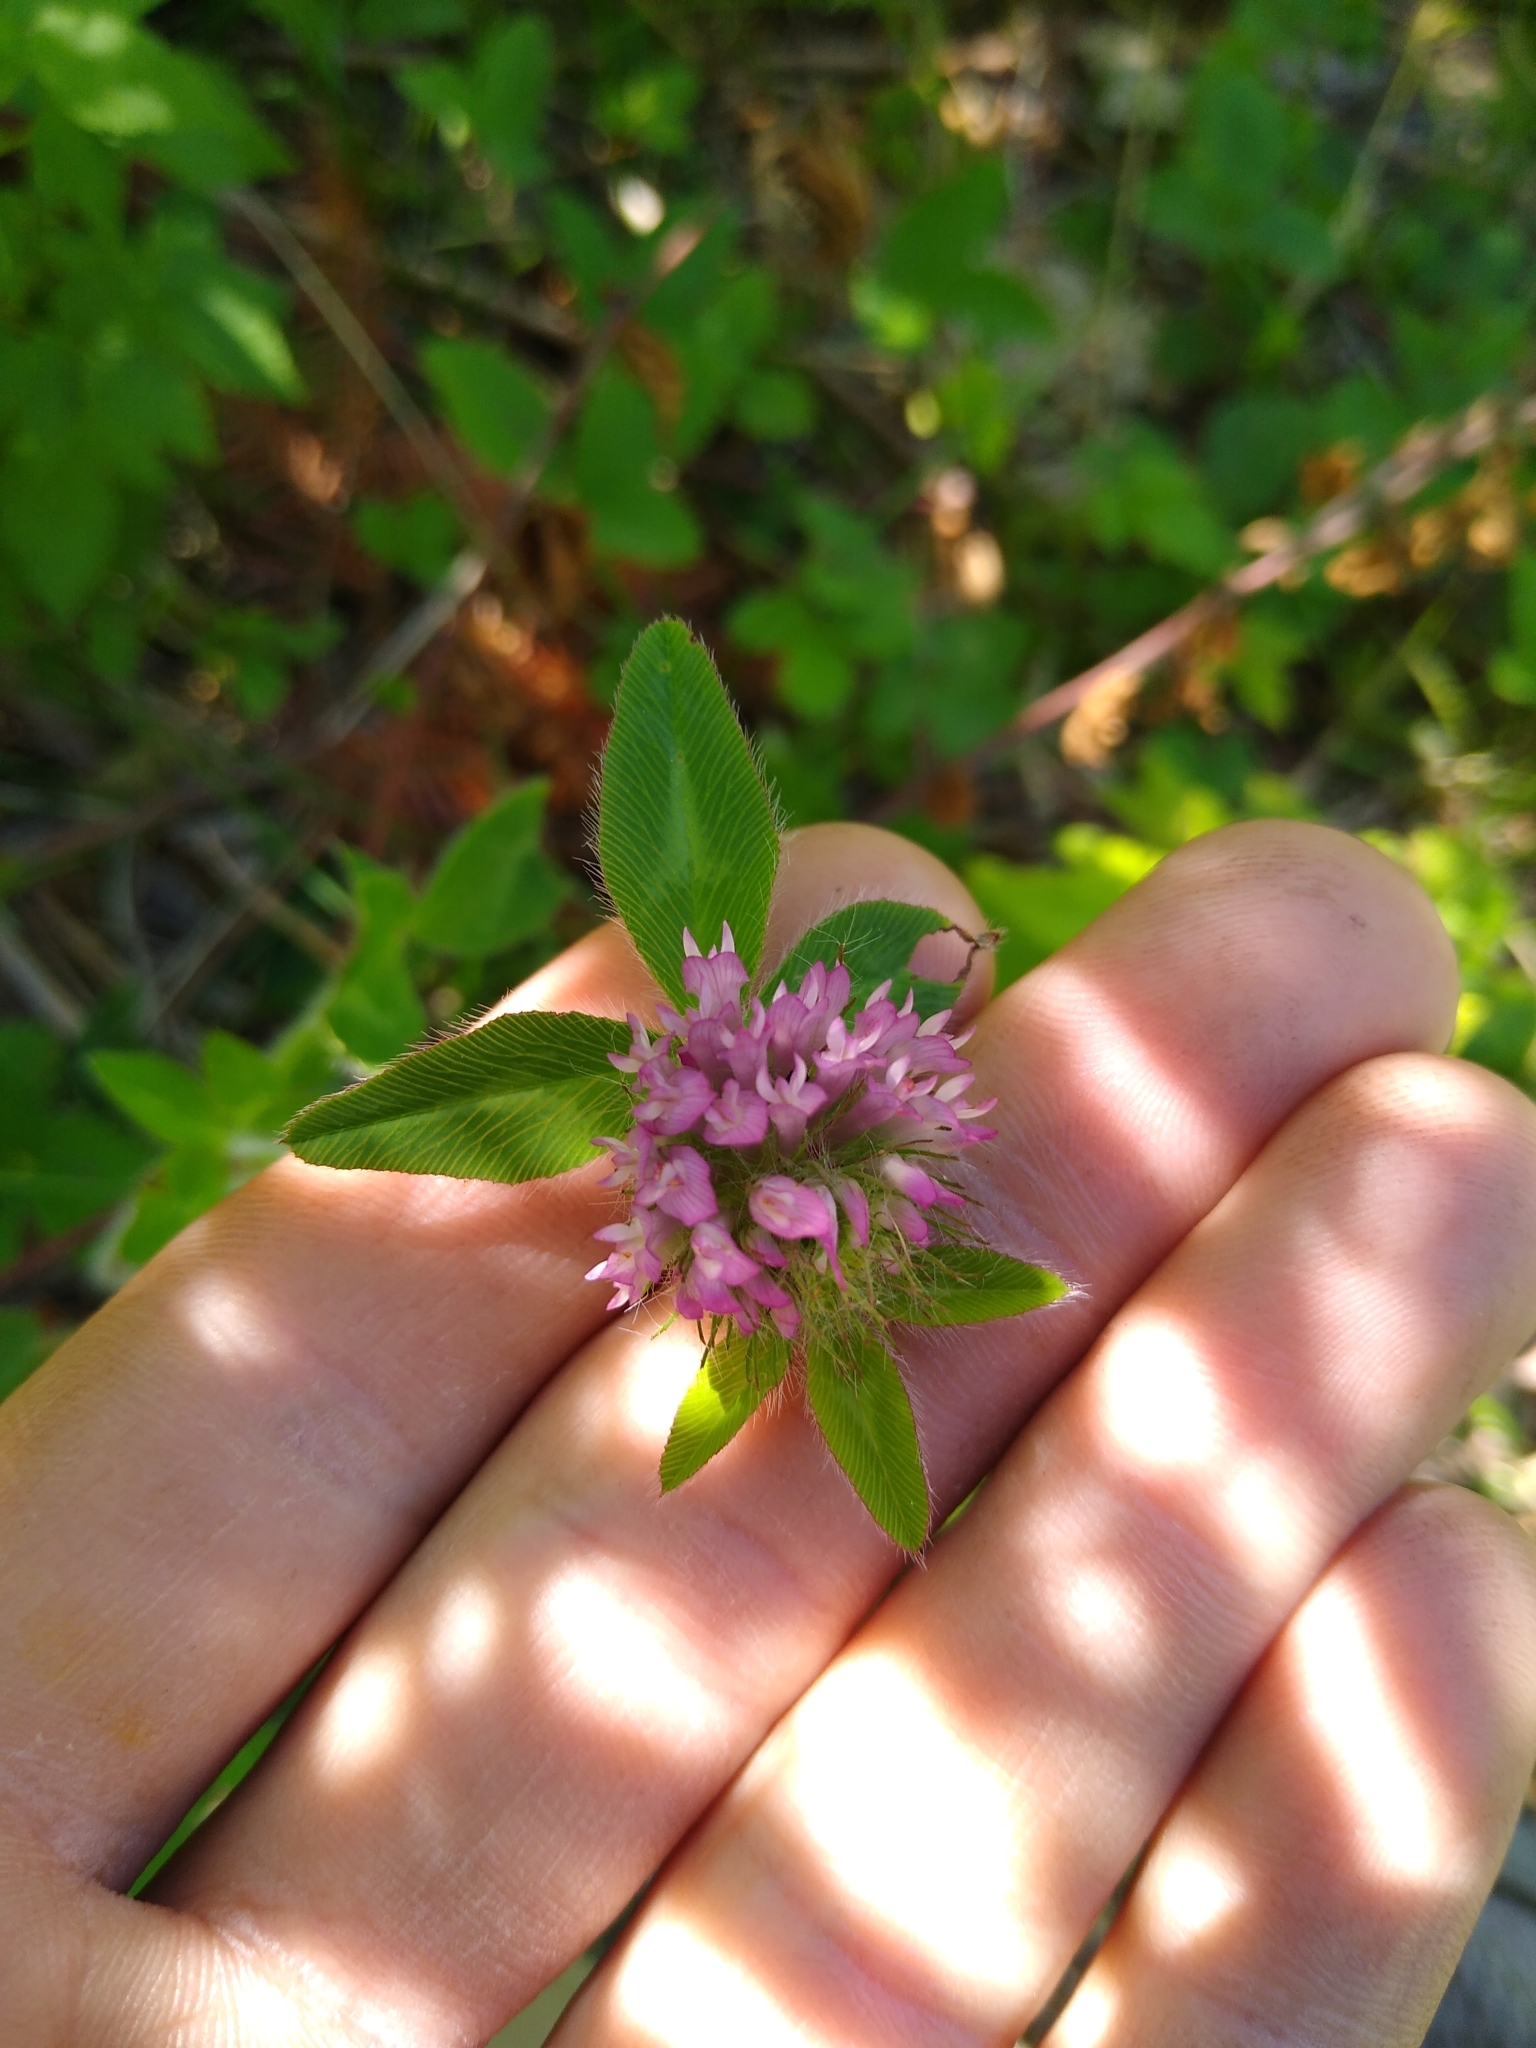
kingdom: Plantae
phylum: Tracheophyta
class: Magnoliopsida
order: Fabales
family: Fabaceae
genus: Trifolium
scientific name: Trifolium pratense
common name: Red clover
